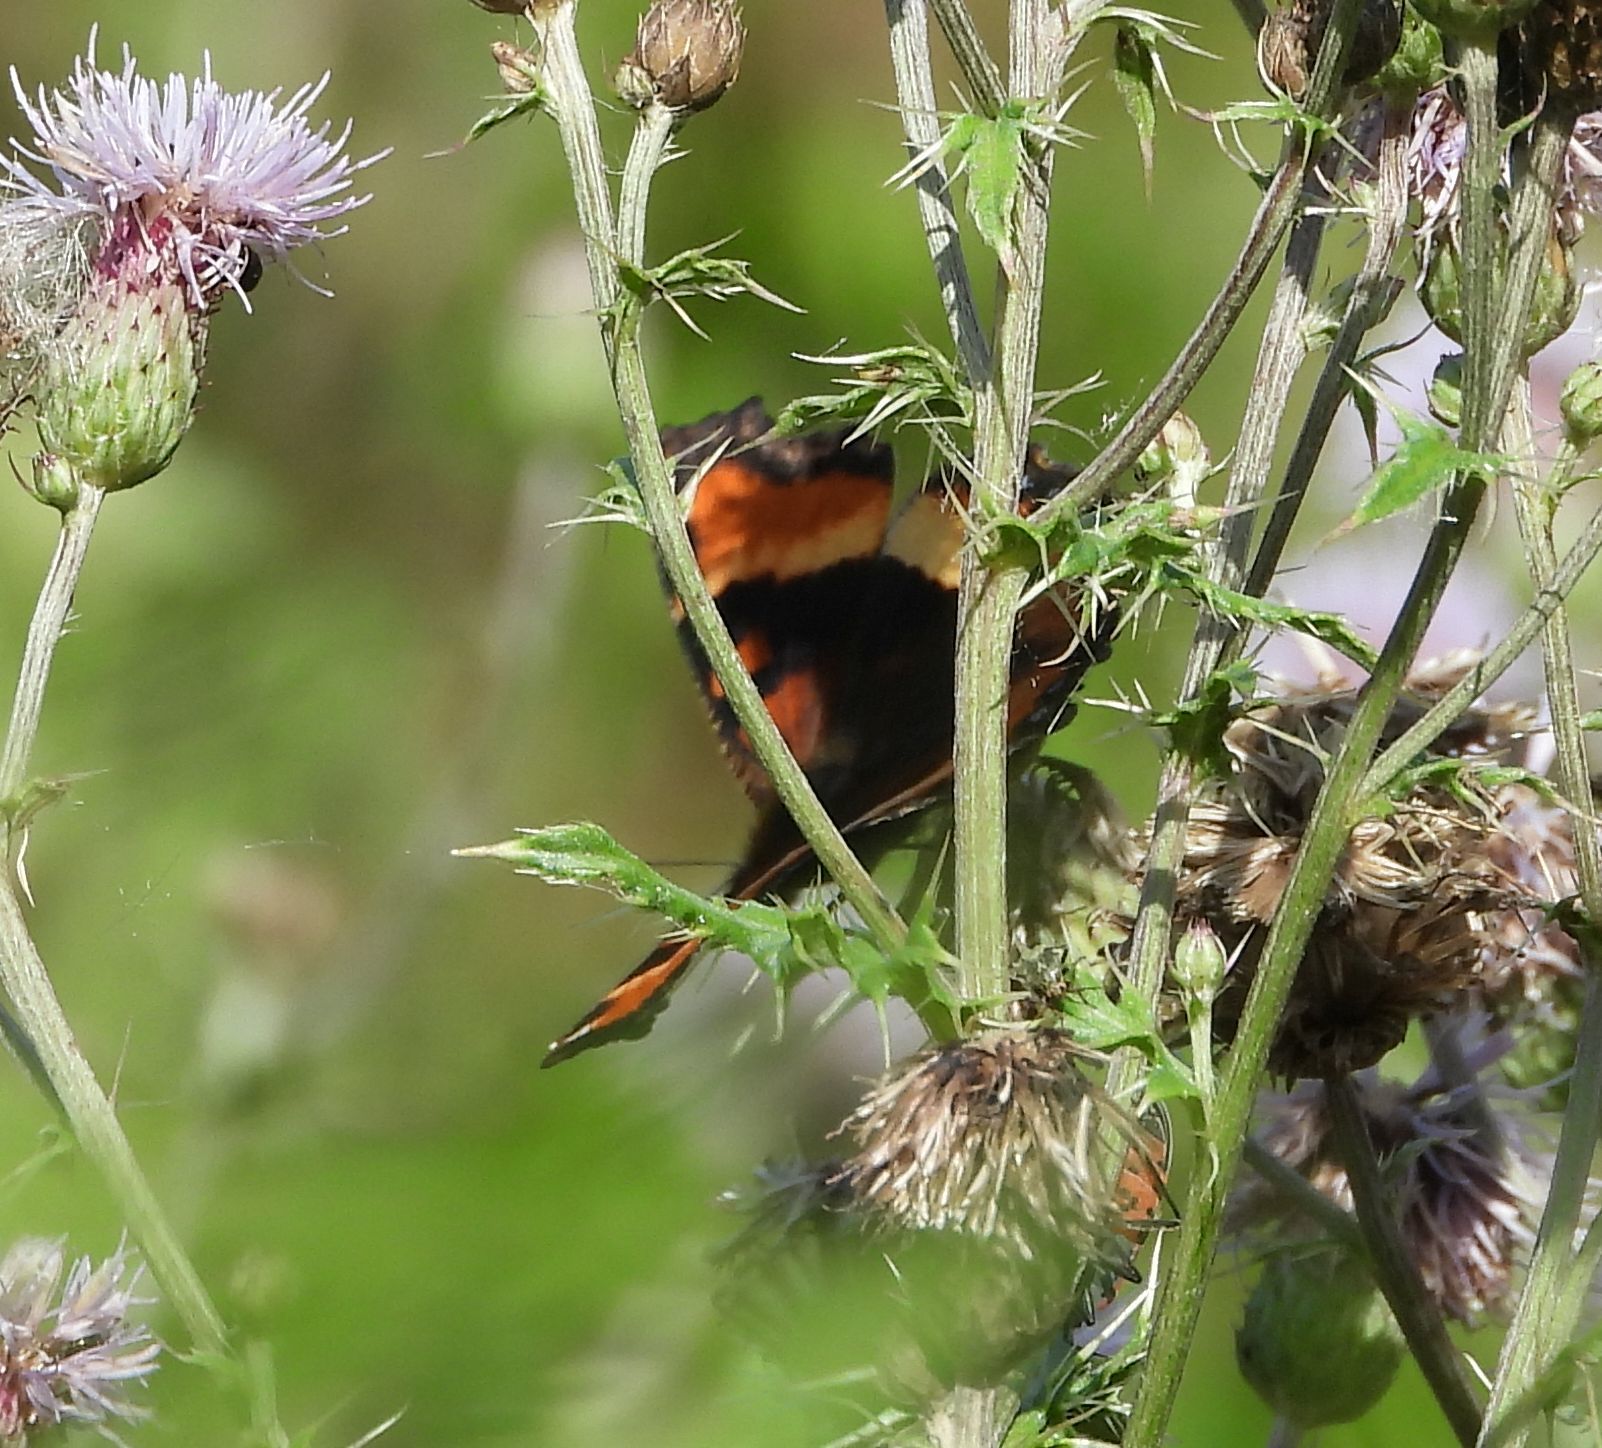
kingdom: Animalia
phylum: Arthropoda
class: Insecta
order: Lepidoptera
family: Nymphalidae
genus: Aglais
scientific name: Aglais milberti
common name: Milbert's tortoiseshell
